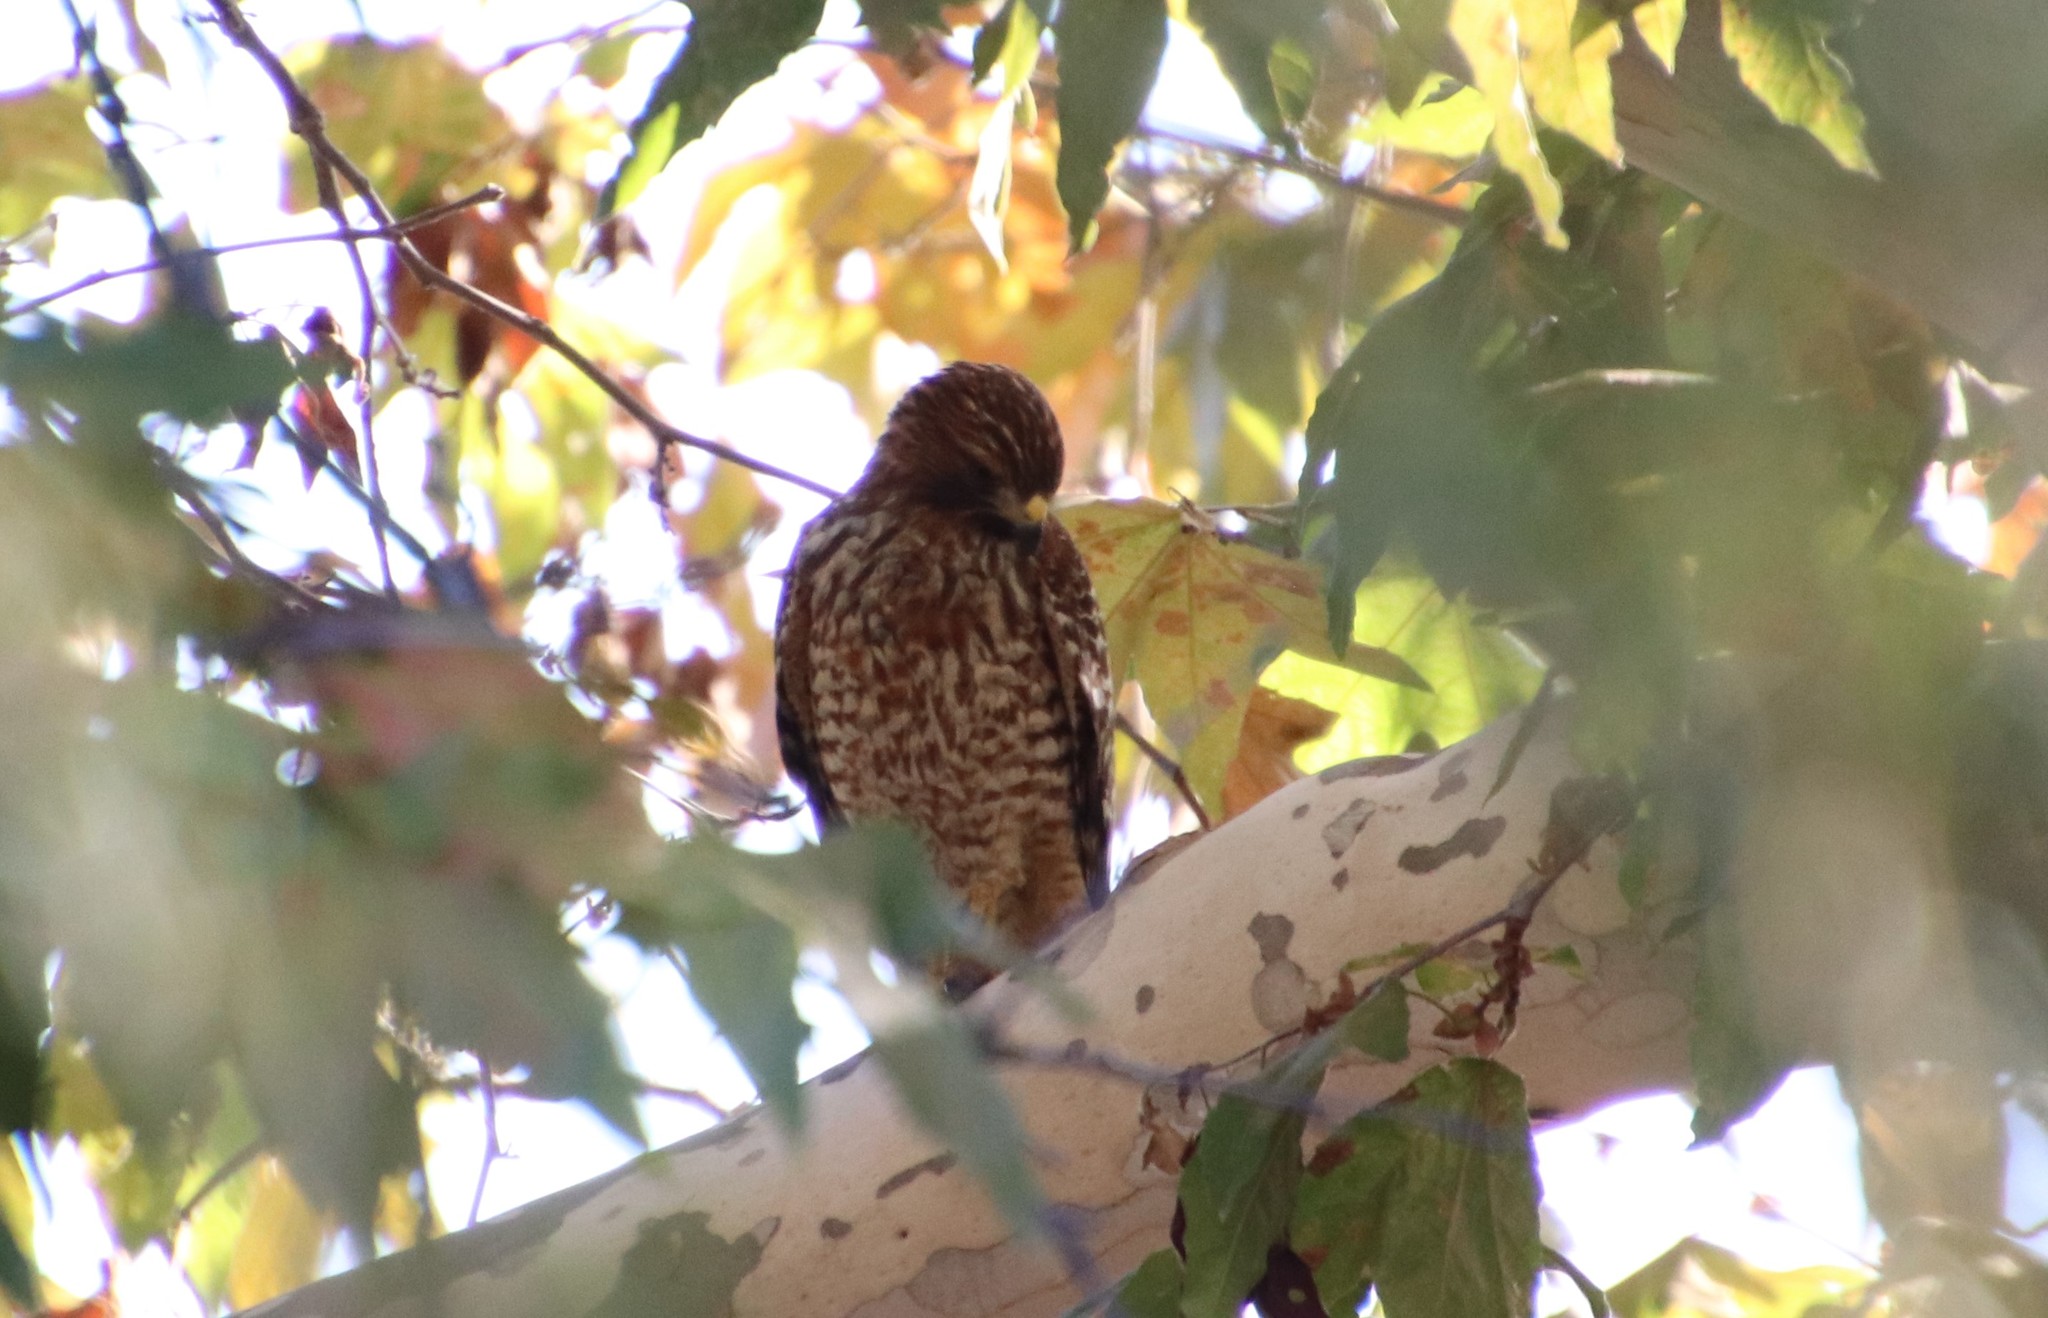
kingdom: Animalia
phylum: Chordata
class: Aves
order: Accipitriformes
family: Accipitridae
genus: Buteo
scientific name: Buteo lineatus
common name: Red-shouldered hawk
